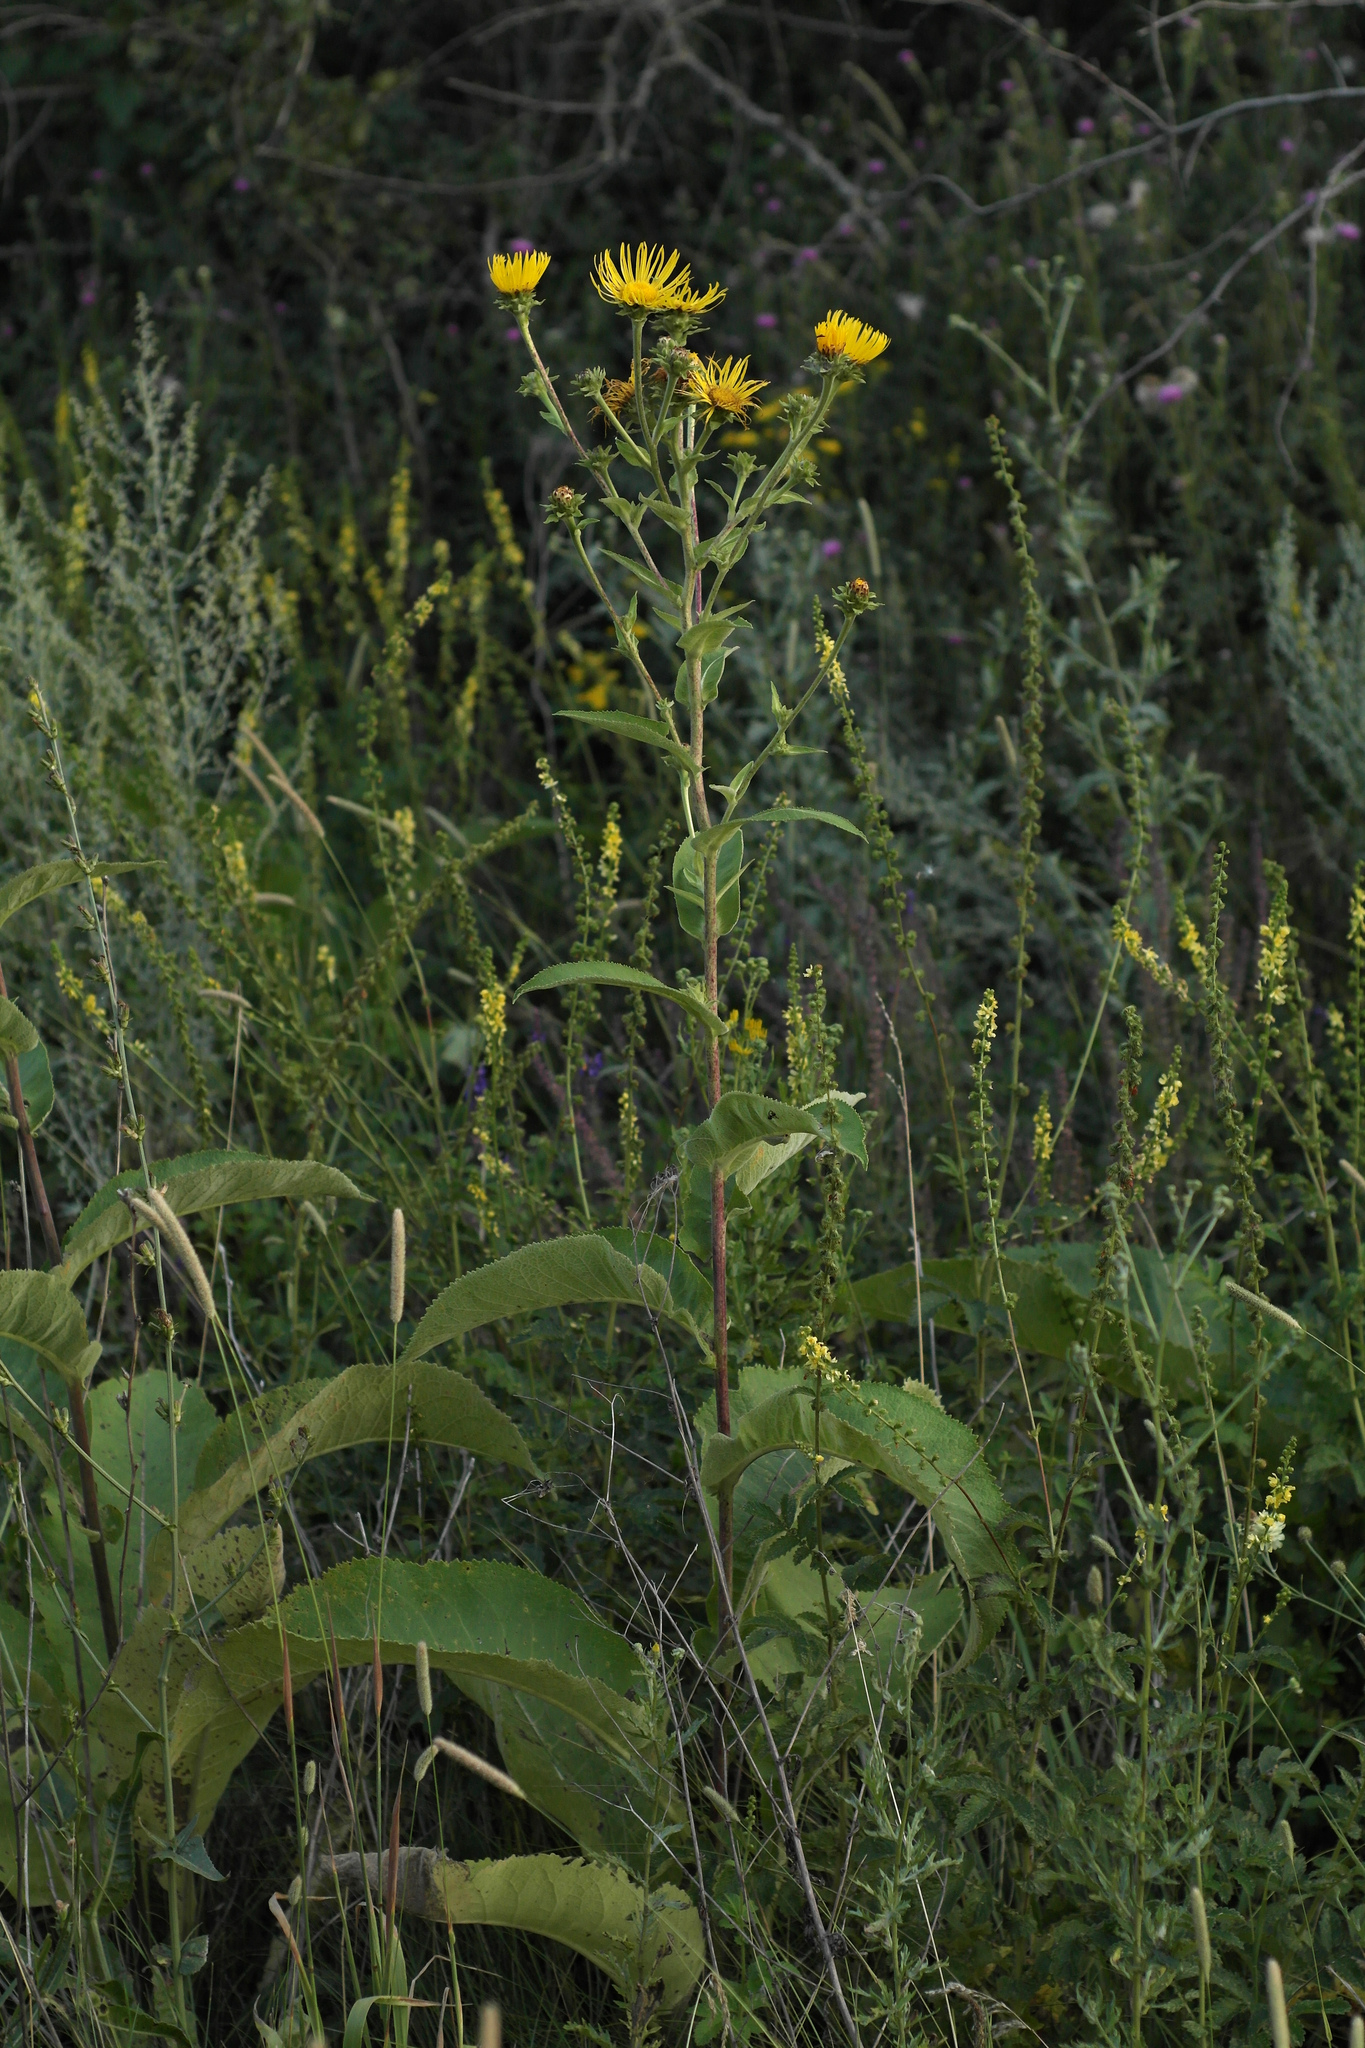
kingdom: Plantae
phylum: Tracheophyta
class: Magnoliopsida
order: Asterales
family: Asteraceae
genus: Inula
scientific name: Inula helenium
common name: Elecampane
